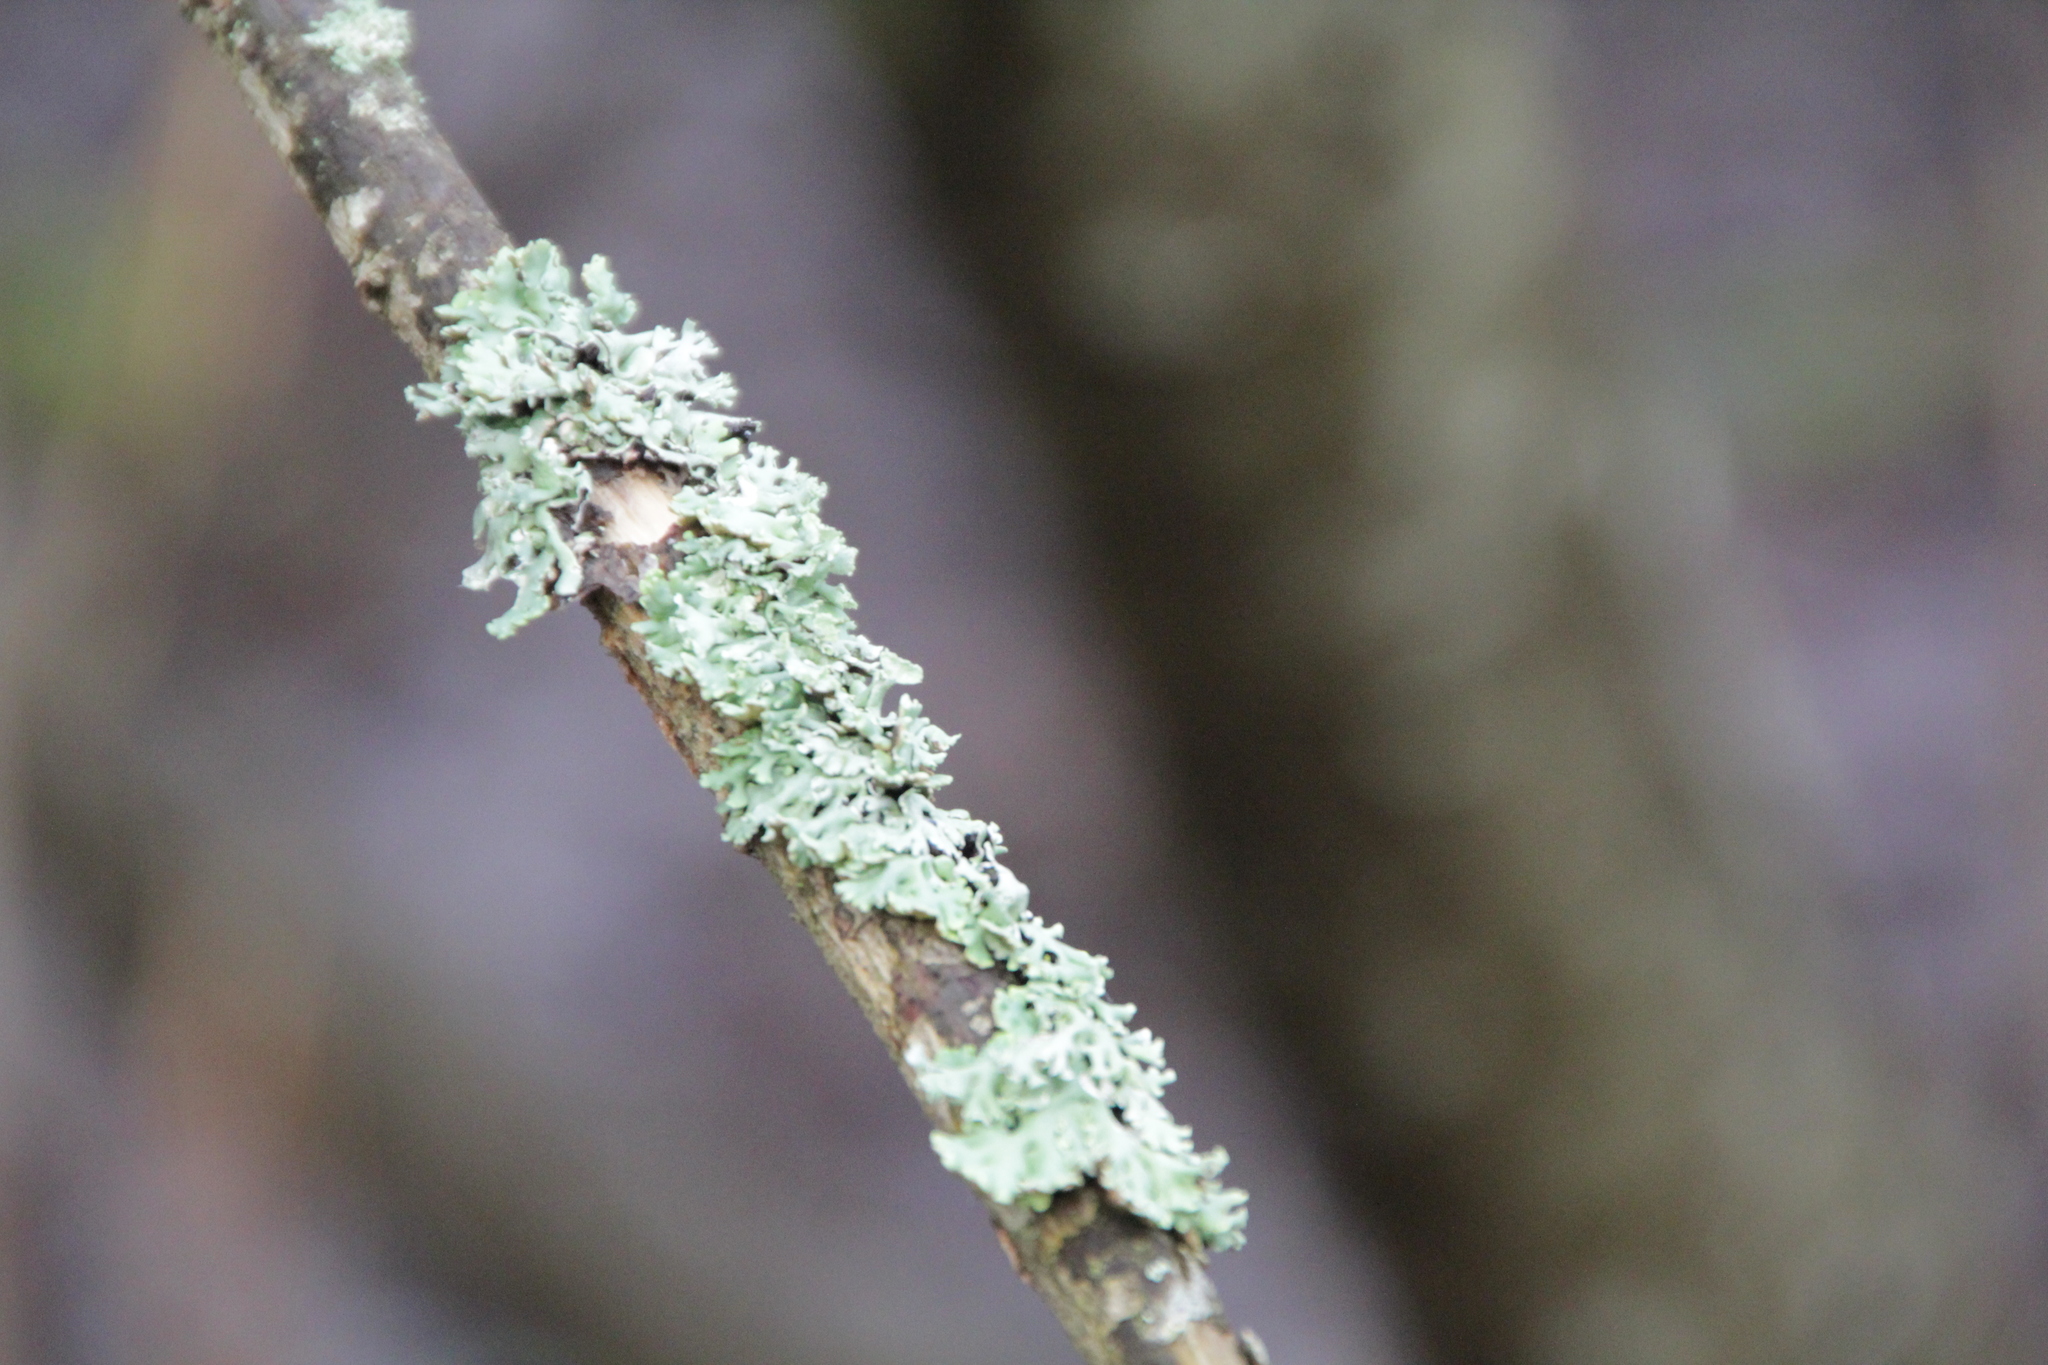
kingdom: Fungi
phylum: Ascomycota
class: Lecanoromycetes
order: Lecanorales
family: Parmeliaceae
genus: Hypogymnia
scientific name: Hypogymnia physodes
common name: Dark crottle
